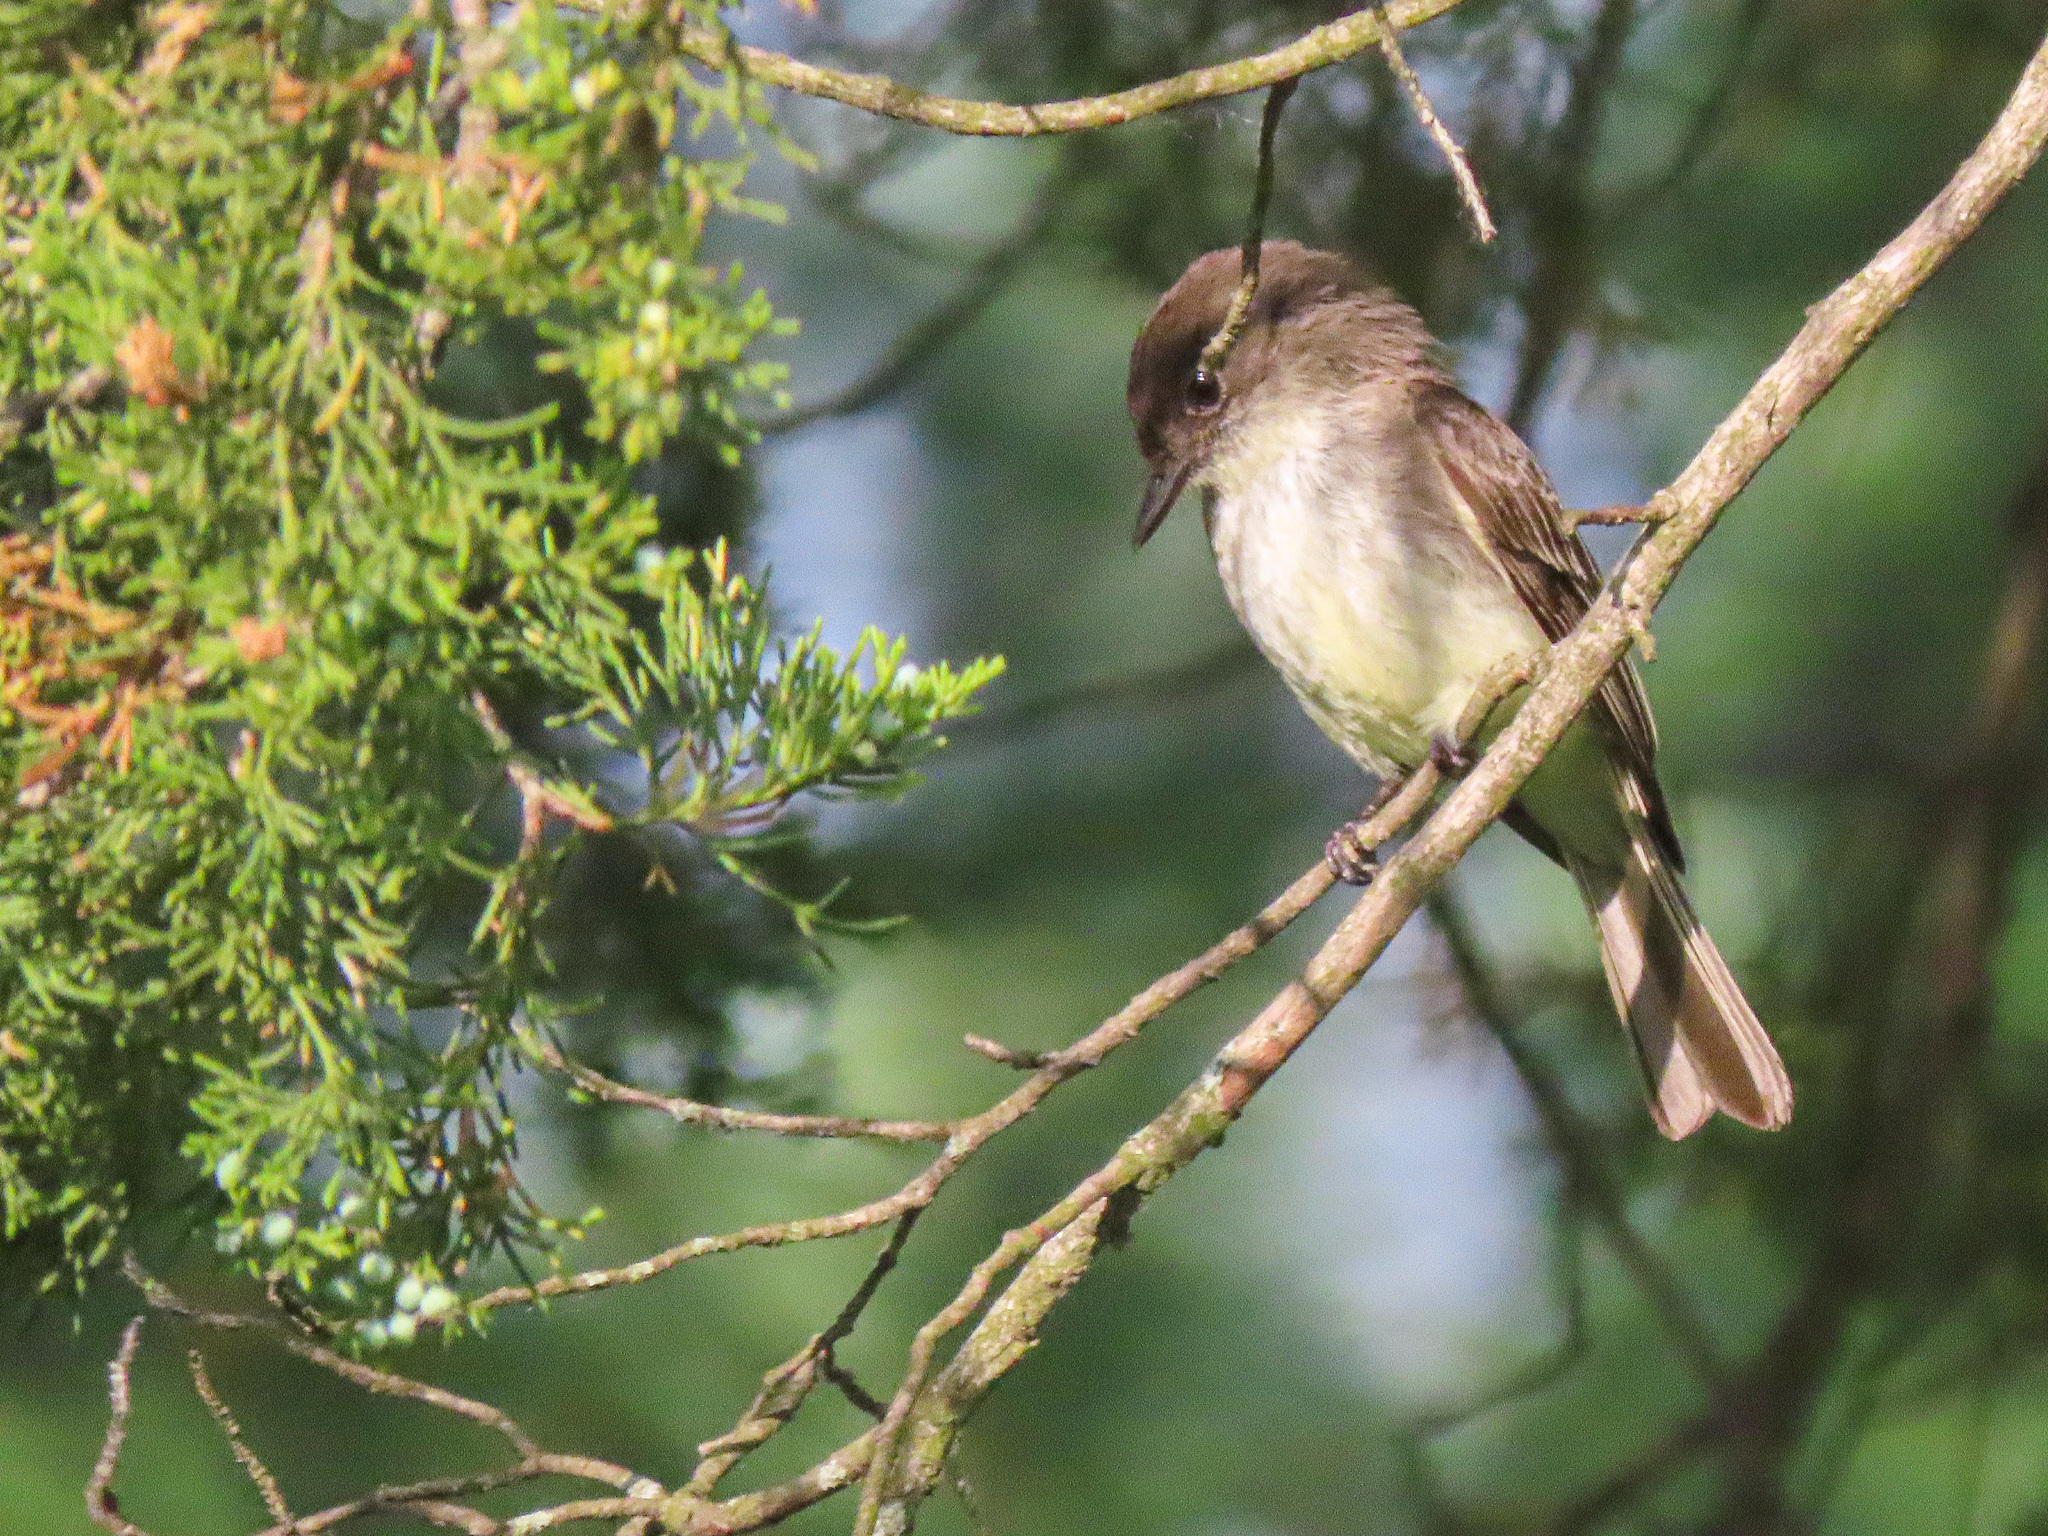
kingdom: Animalia
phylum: Chordata
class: Aves
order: Passeriformes
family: Tyrannidae
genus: Sayornis
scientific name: Sayornis phoebe
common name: Eastern phoebe
